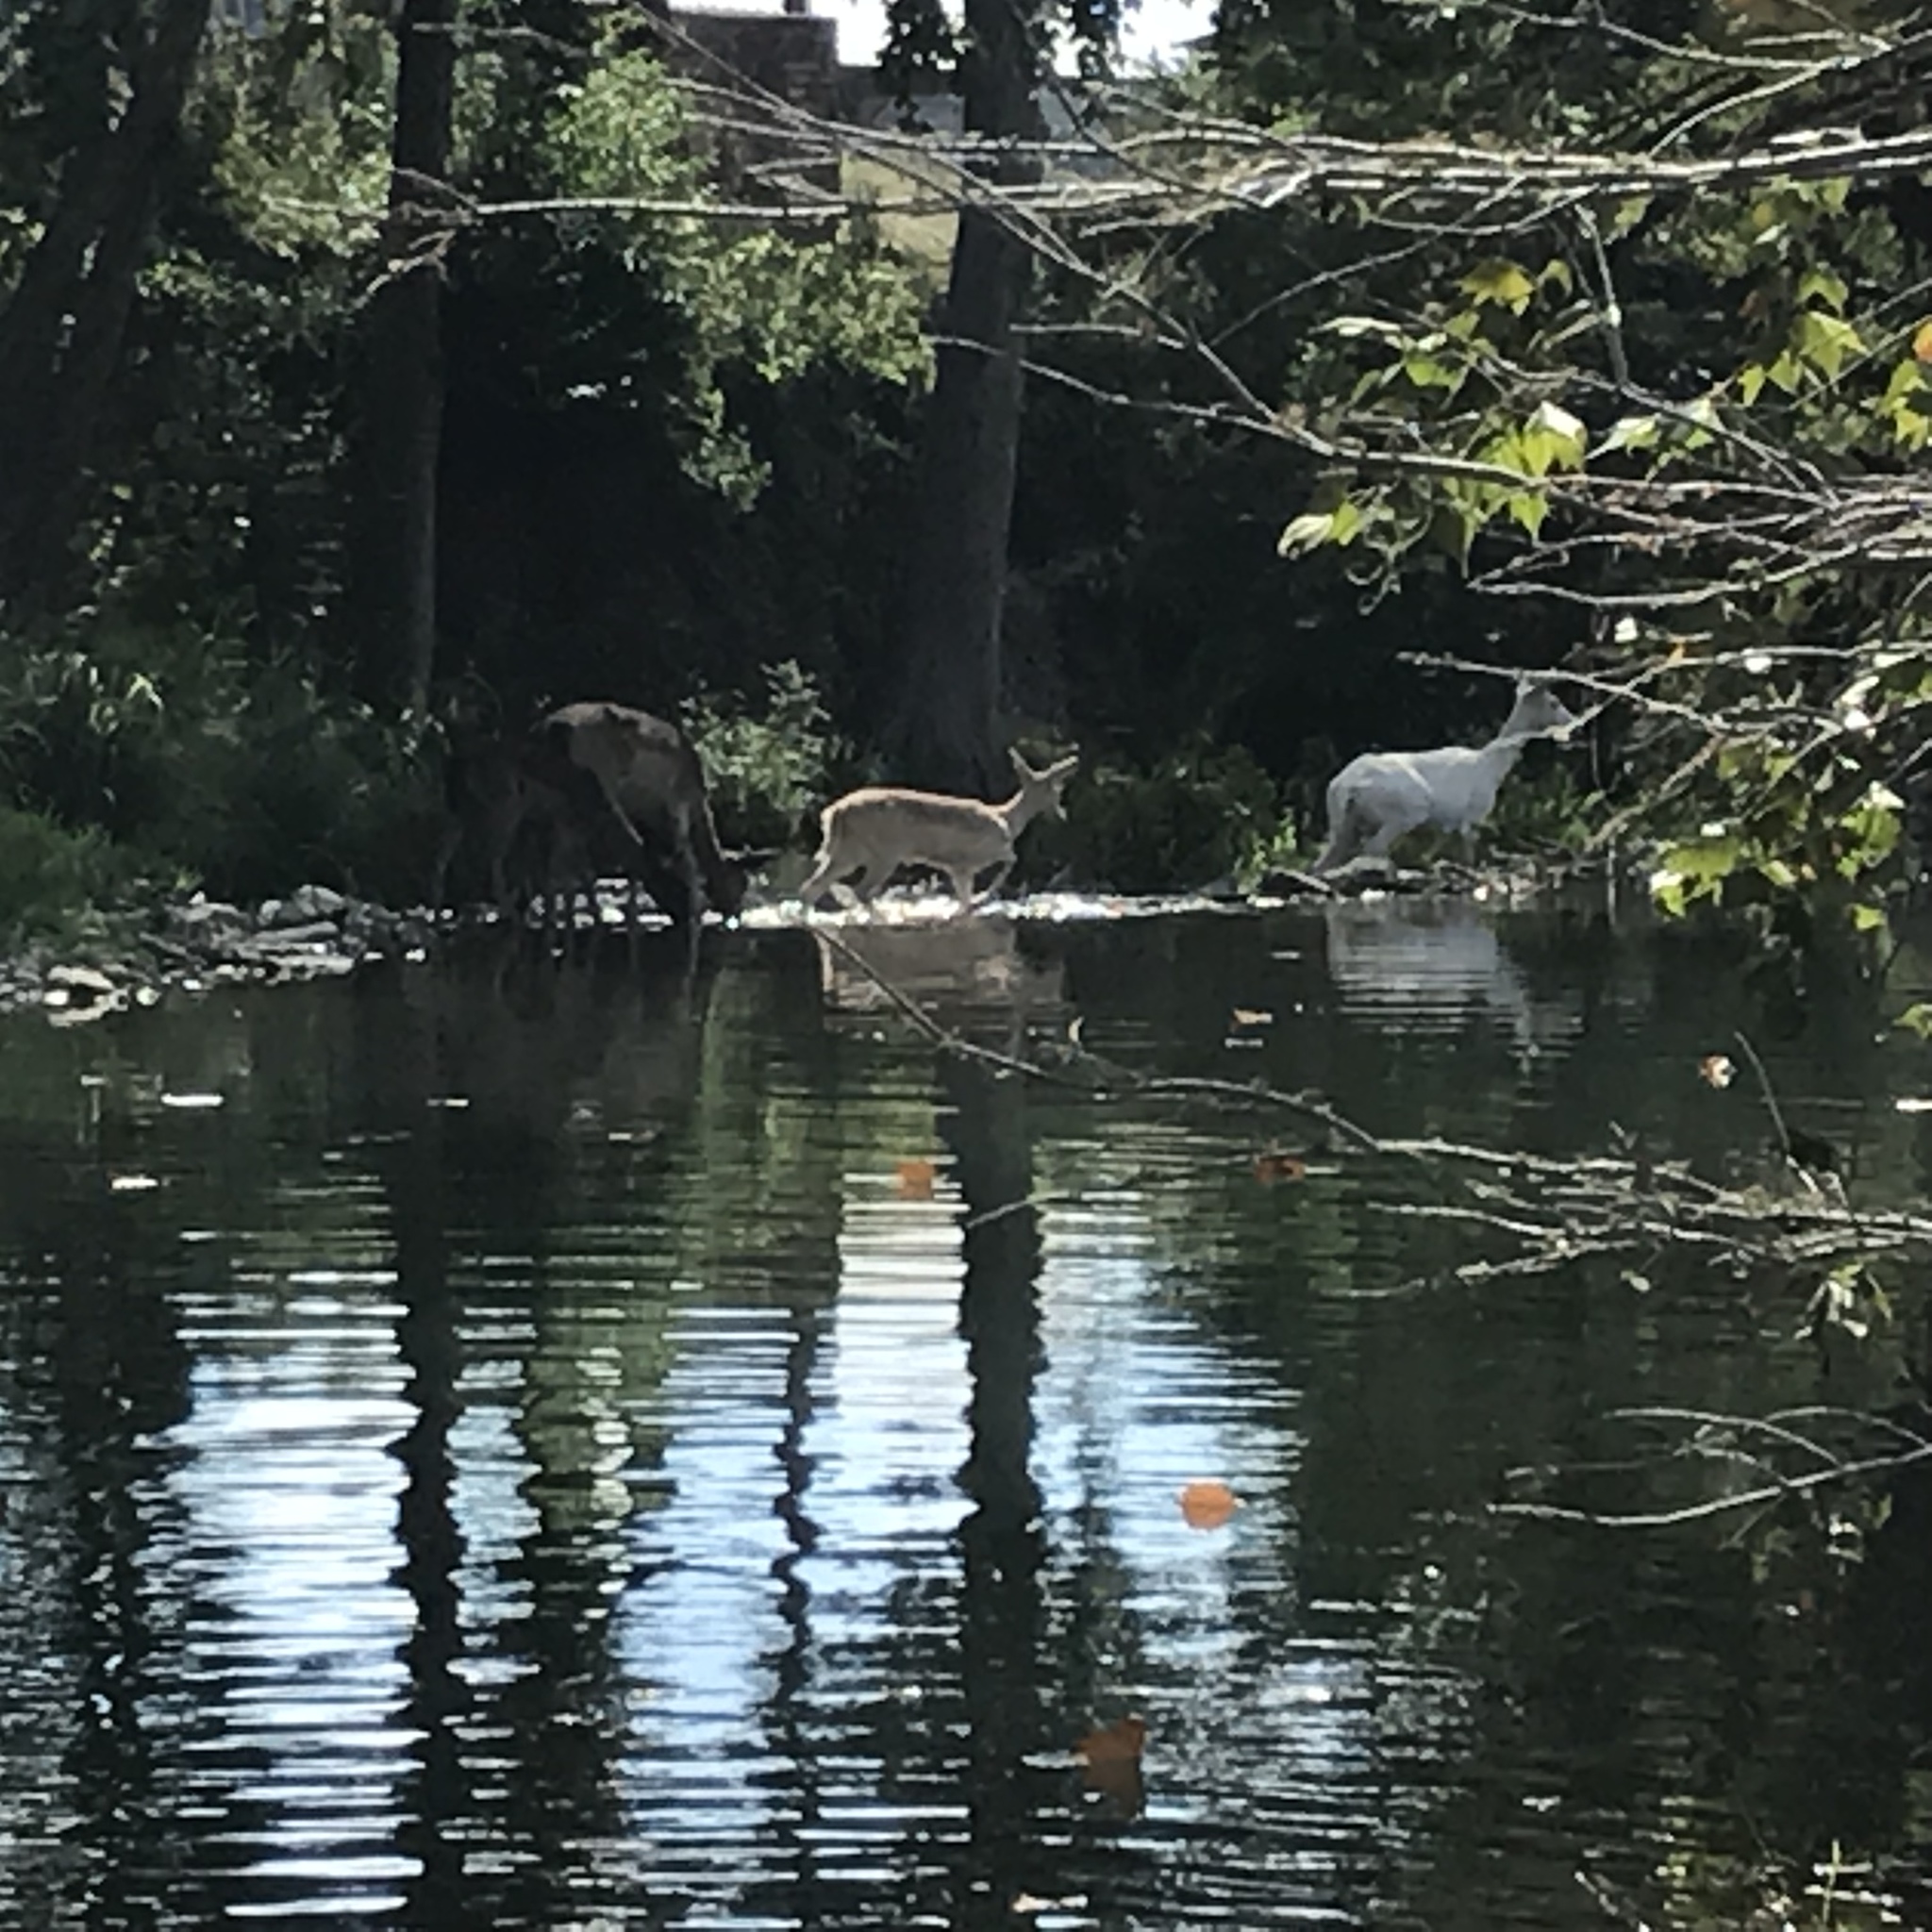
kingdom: Animalia
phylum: Chordata
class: Mammalia
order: Artiodactyla
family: Cervidae
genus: Dama
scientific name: Dama dama
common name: Fallow deer
